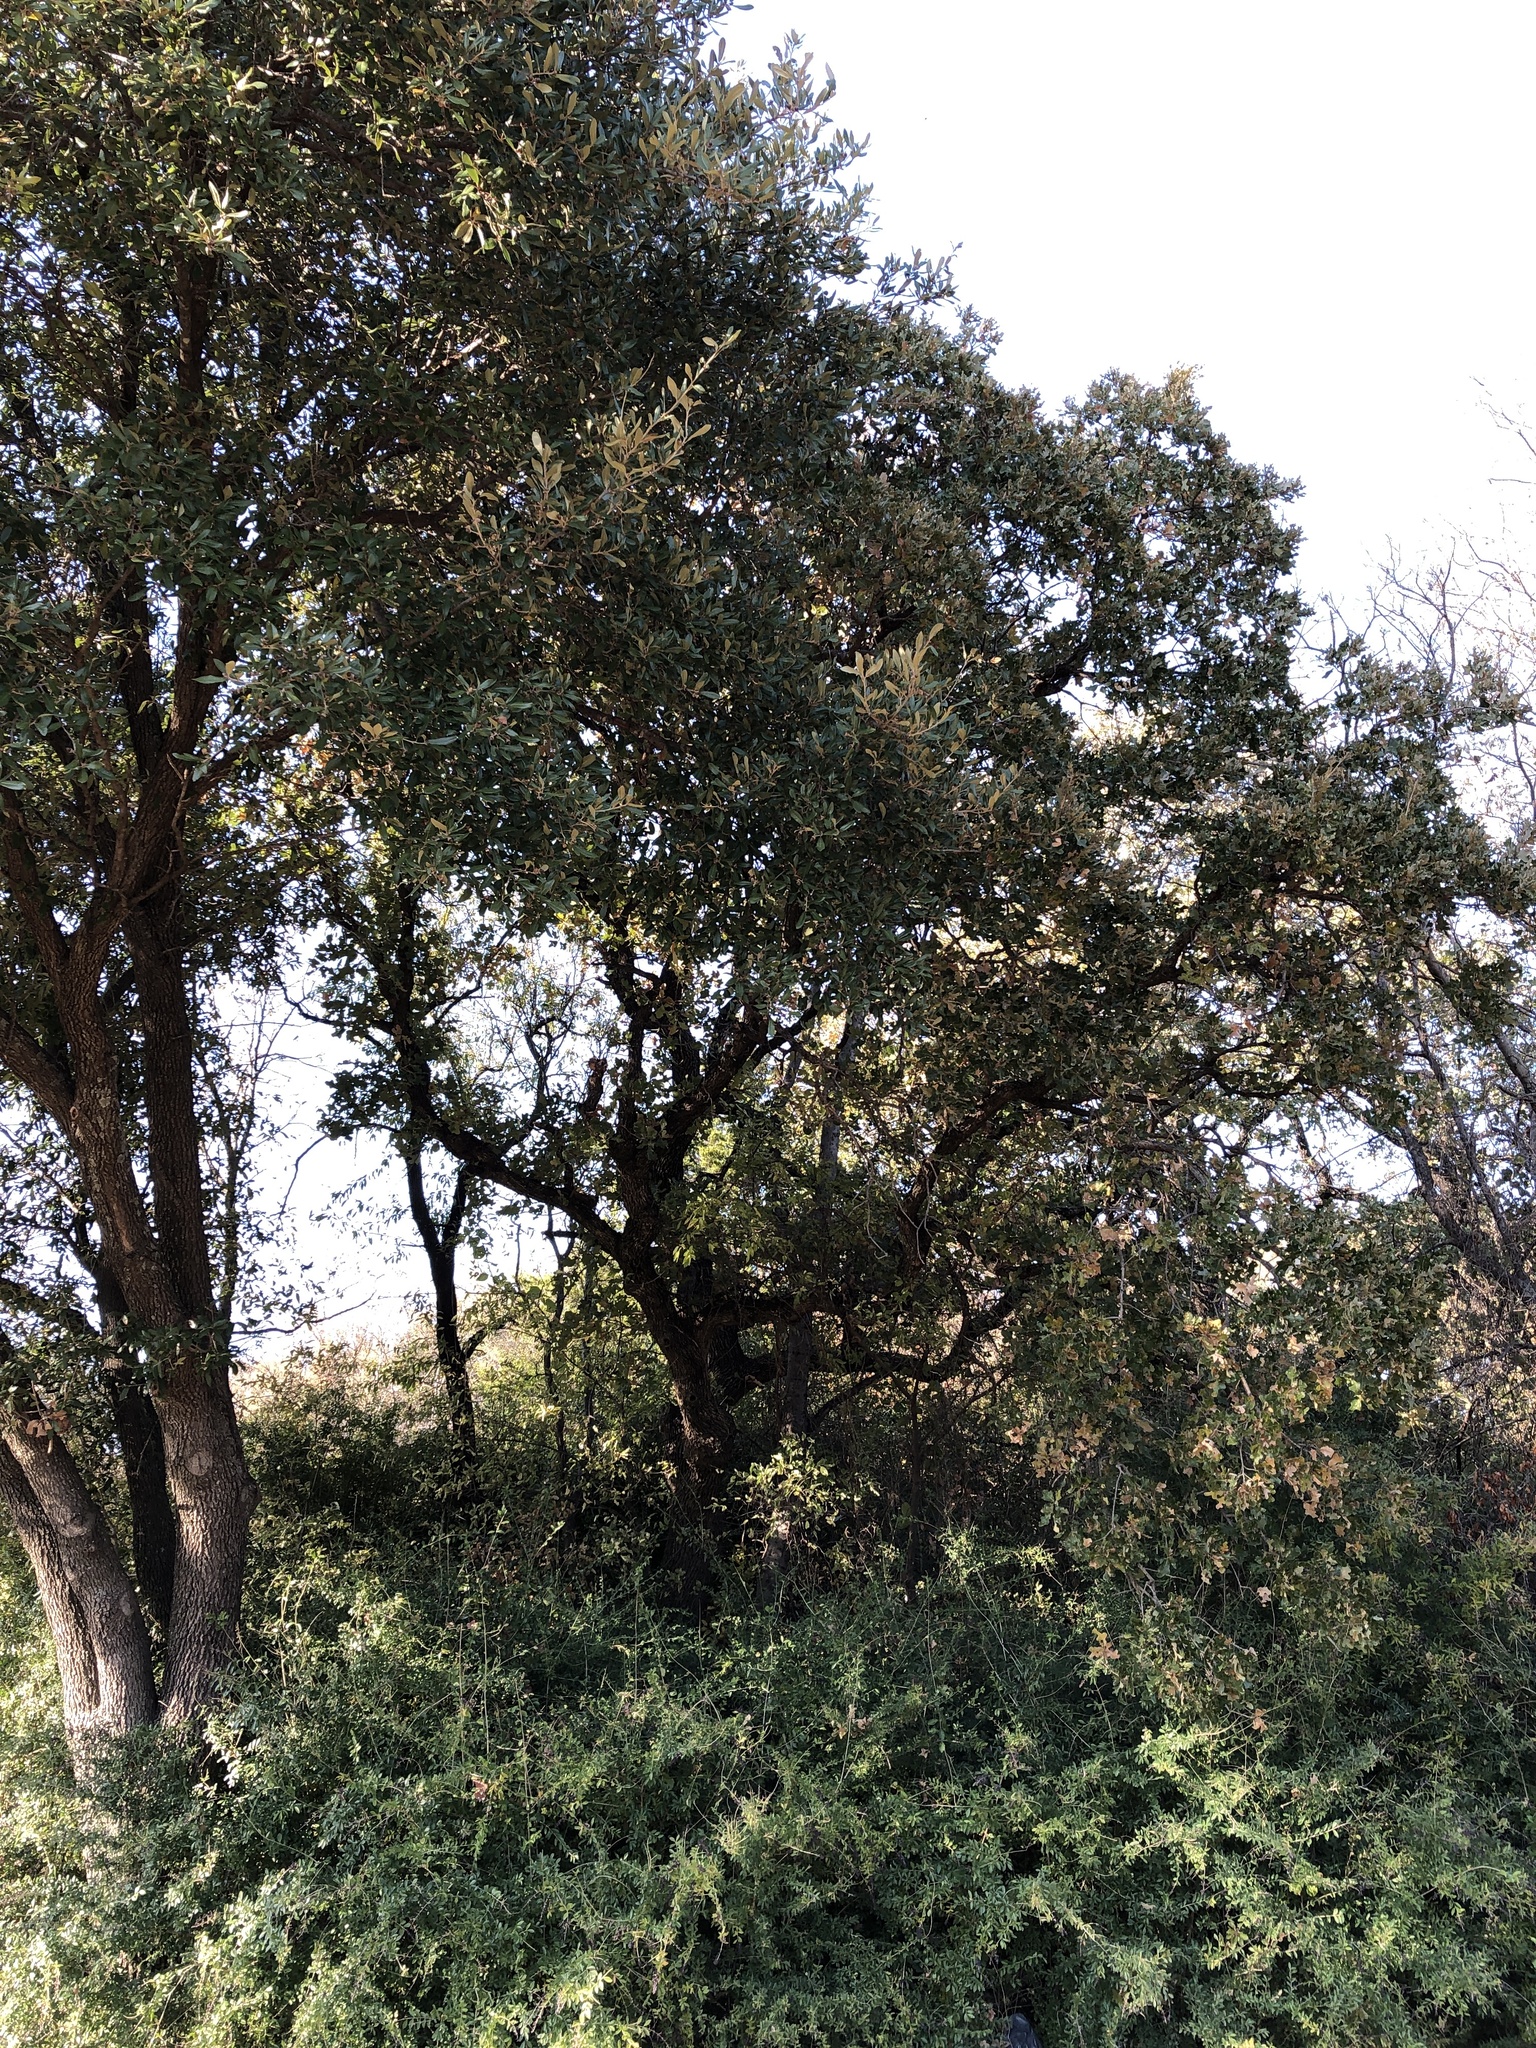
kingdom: Plantae
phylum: Tracheophyta
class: Magnoliopsida
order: Fagales
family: Fagaceae
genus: Quercus
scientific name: Quercus stellata
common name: Post oak
